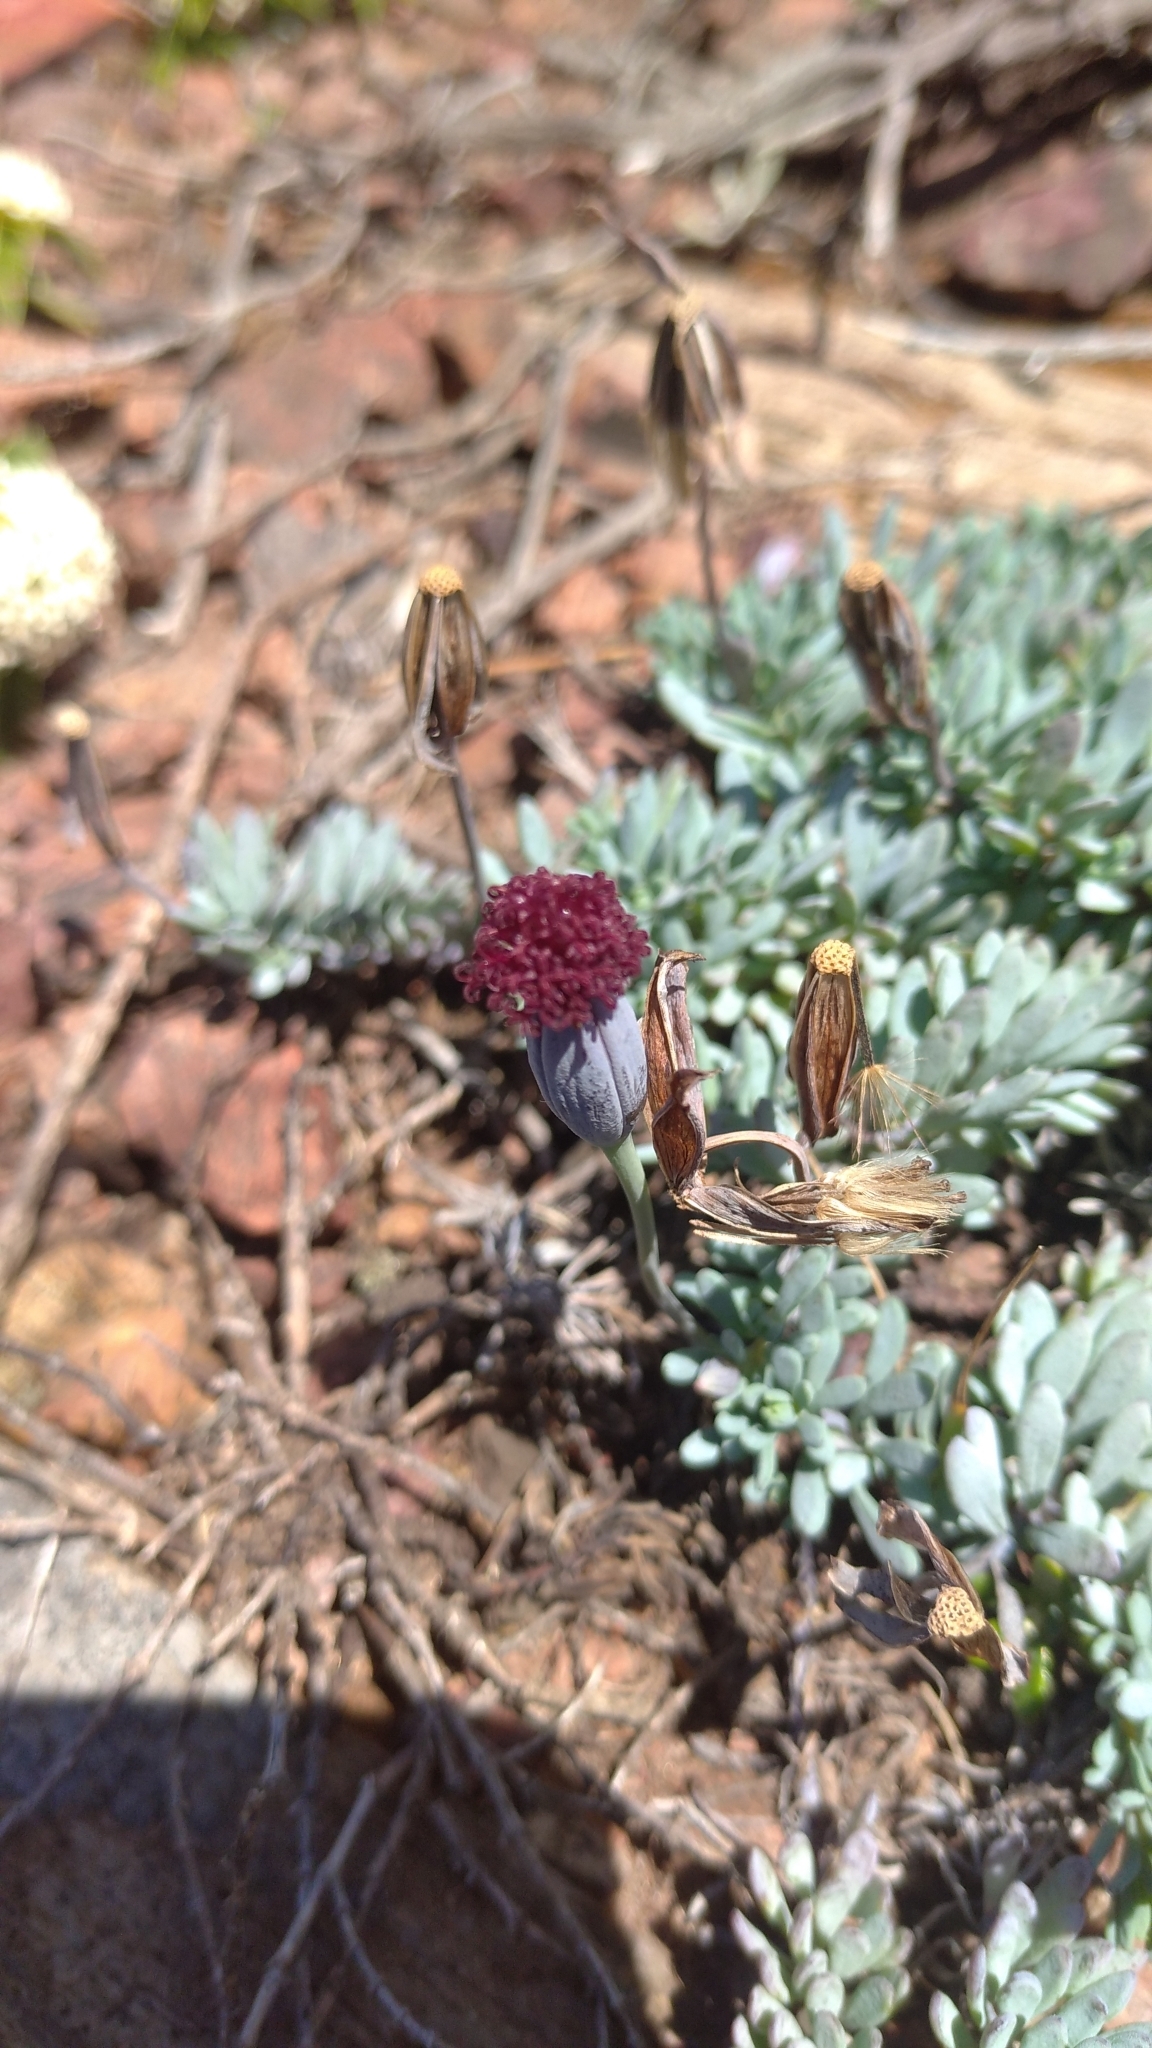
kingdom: Plantae
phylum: Tracheophyta
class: Magnoliopsida
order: Asterales
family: Asteraceae
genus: Porophyllum
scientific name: Porophyllum linifolium
